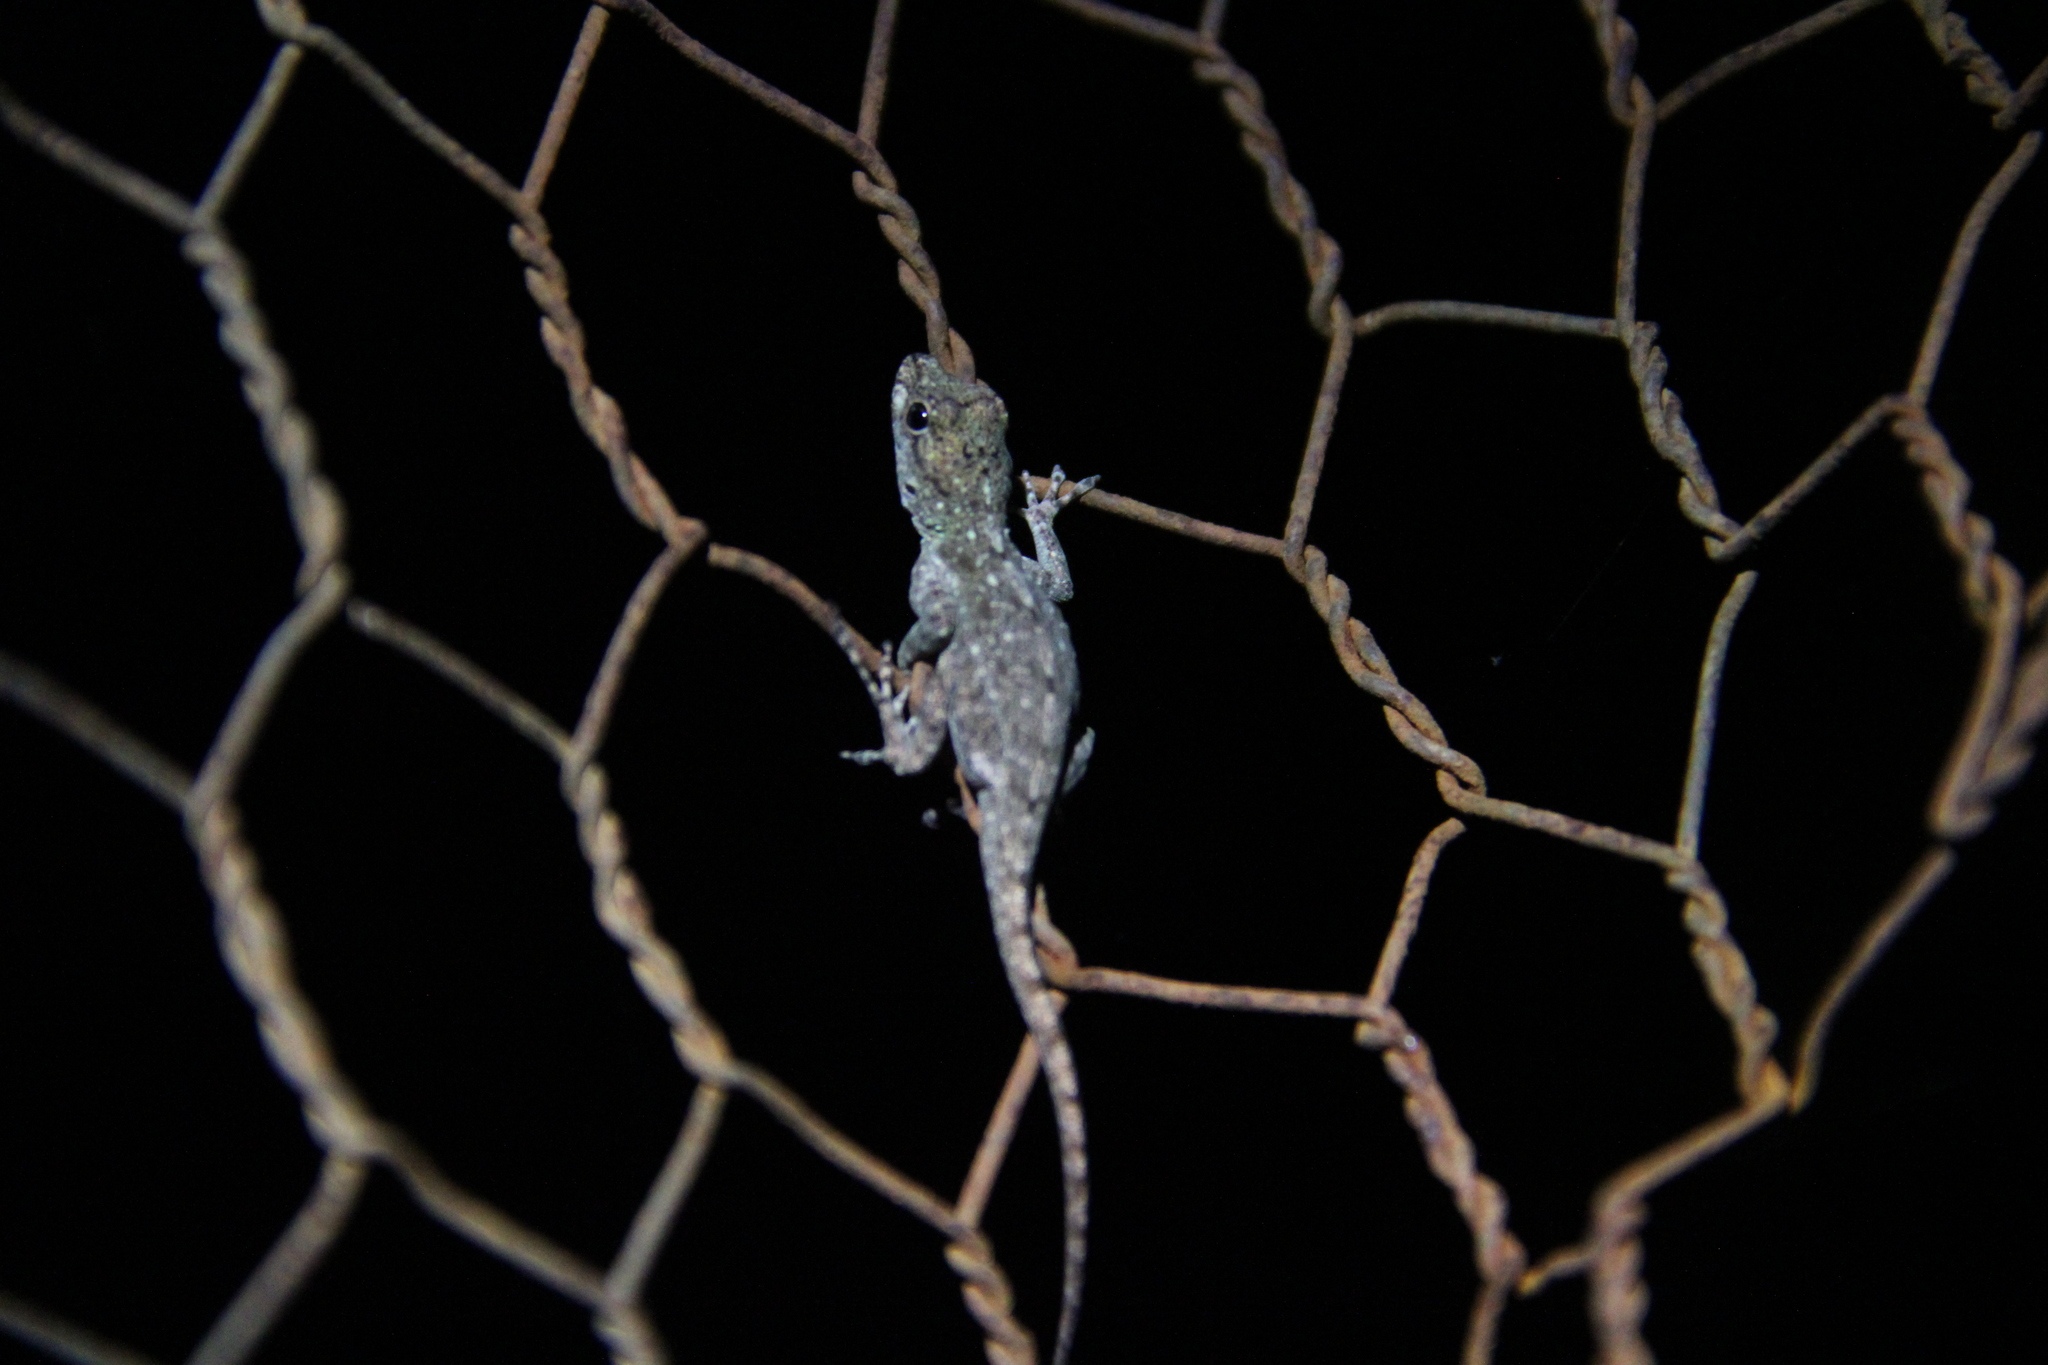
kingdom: Animalia
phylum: Chordata
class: Squamata
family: Dactyloidae
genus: Anolis
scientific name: Anolis distichus
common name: Bark anole
